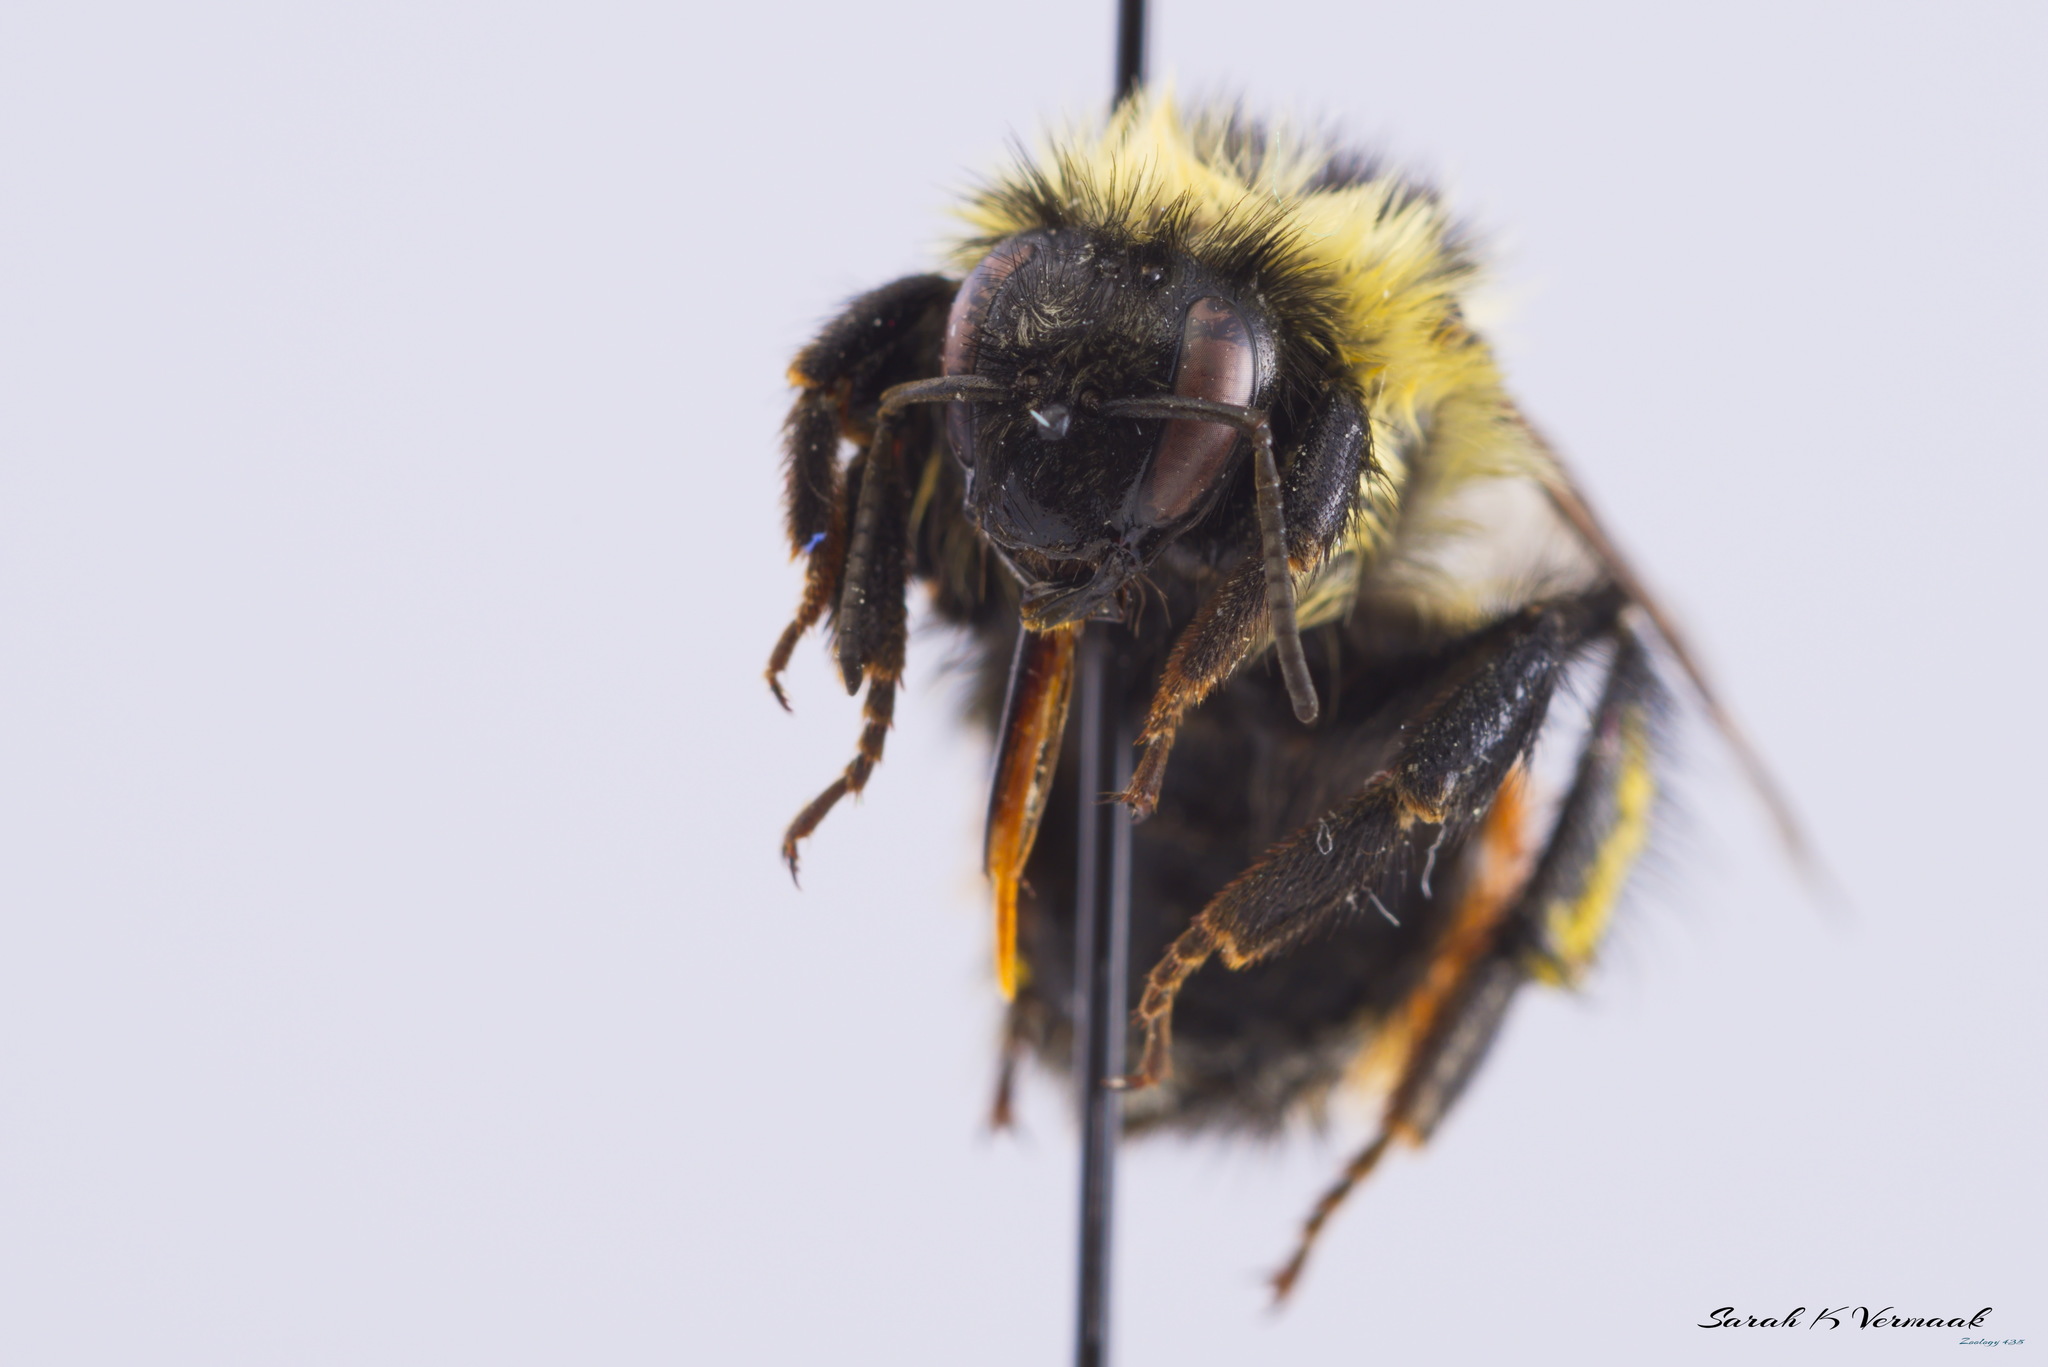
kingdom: Animalia
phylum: Arthropoda
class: Insecta
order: Hymenoptera
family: Apidae
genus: Bombus
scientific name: Bombus rufocinctus
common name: Red-belted bumble bee
